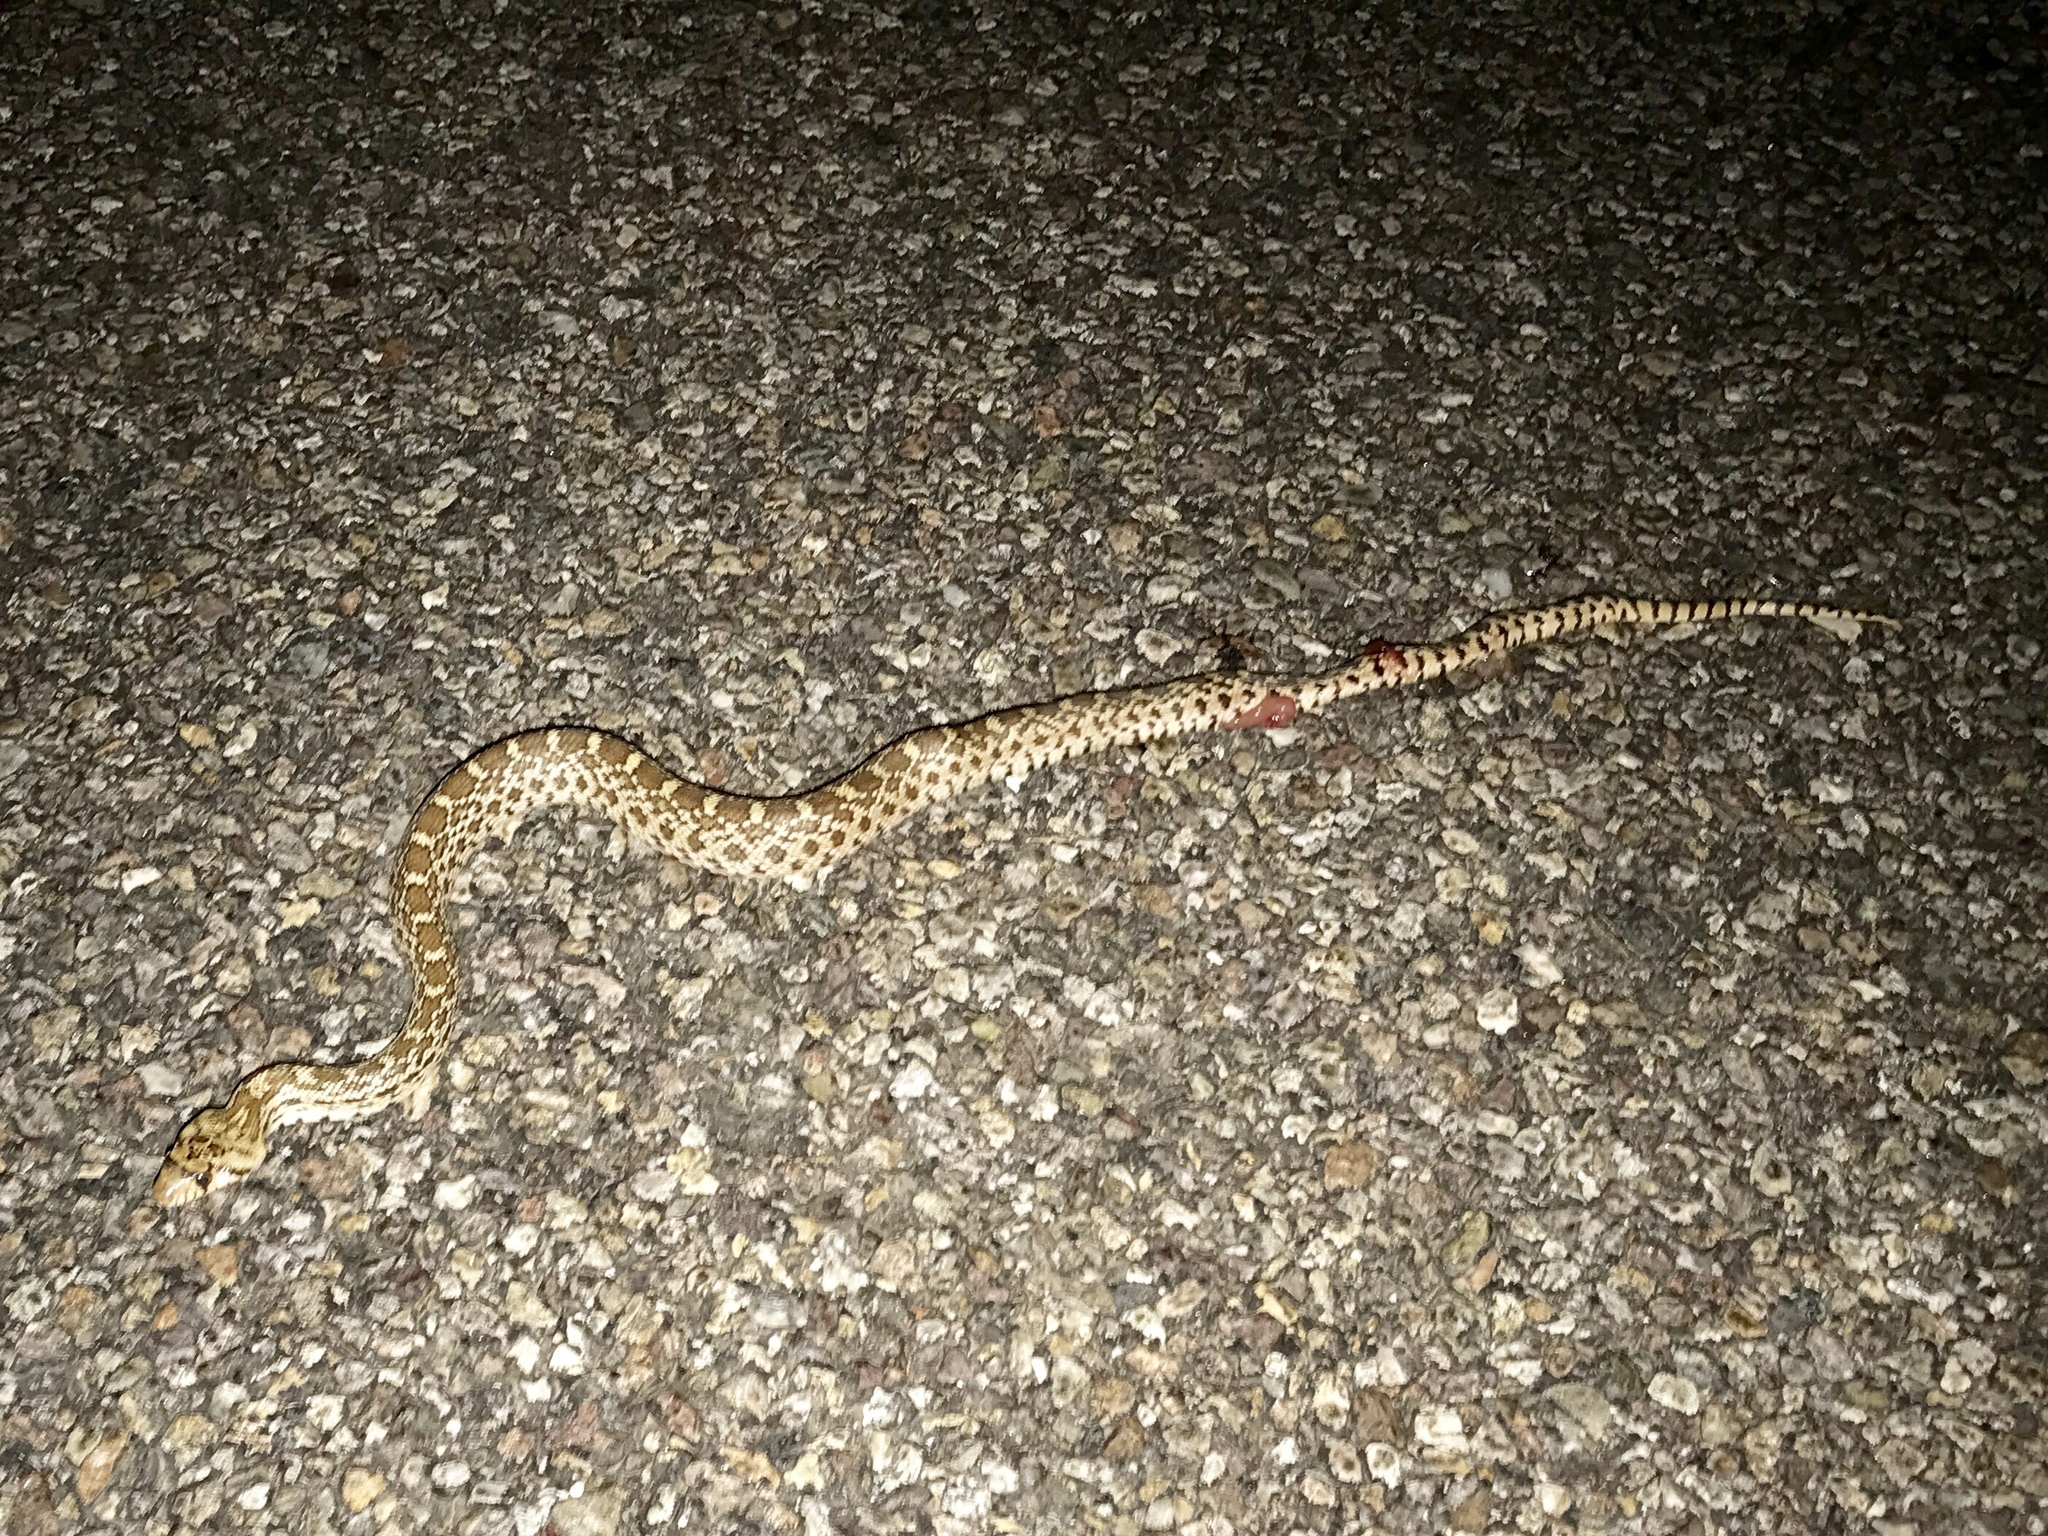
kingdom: Animalia
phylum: Chordata
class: Squamata
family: Colubridae
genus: Pituophis
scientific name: Pituophis catenifer
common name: Gopher snake
